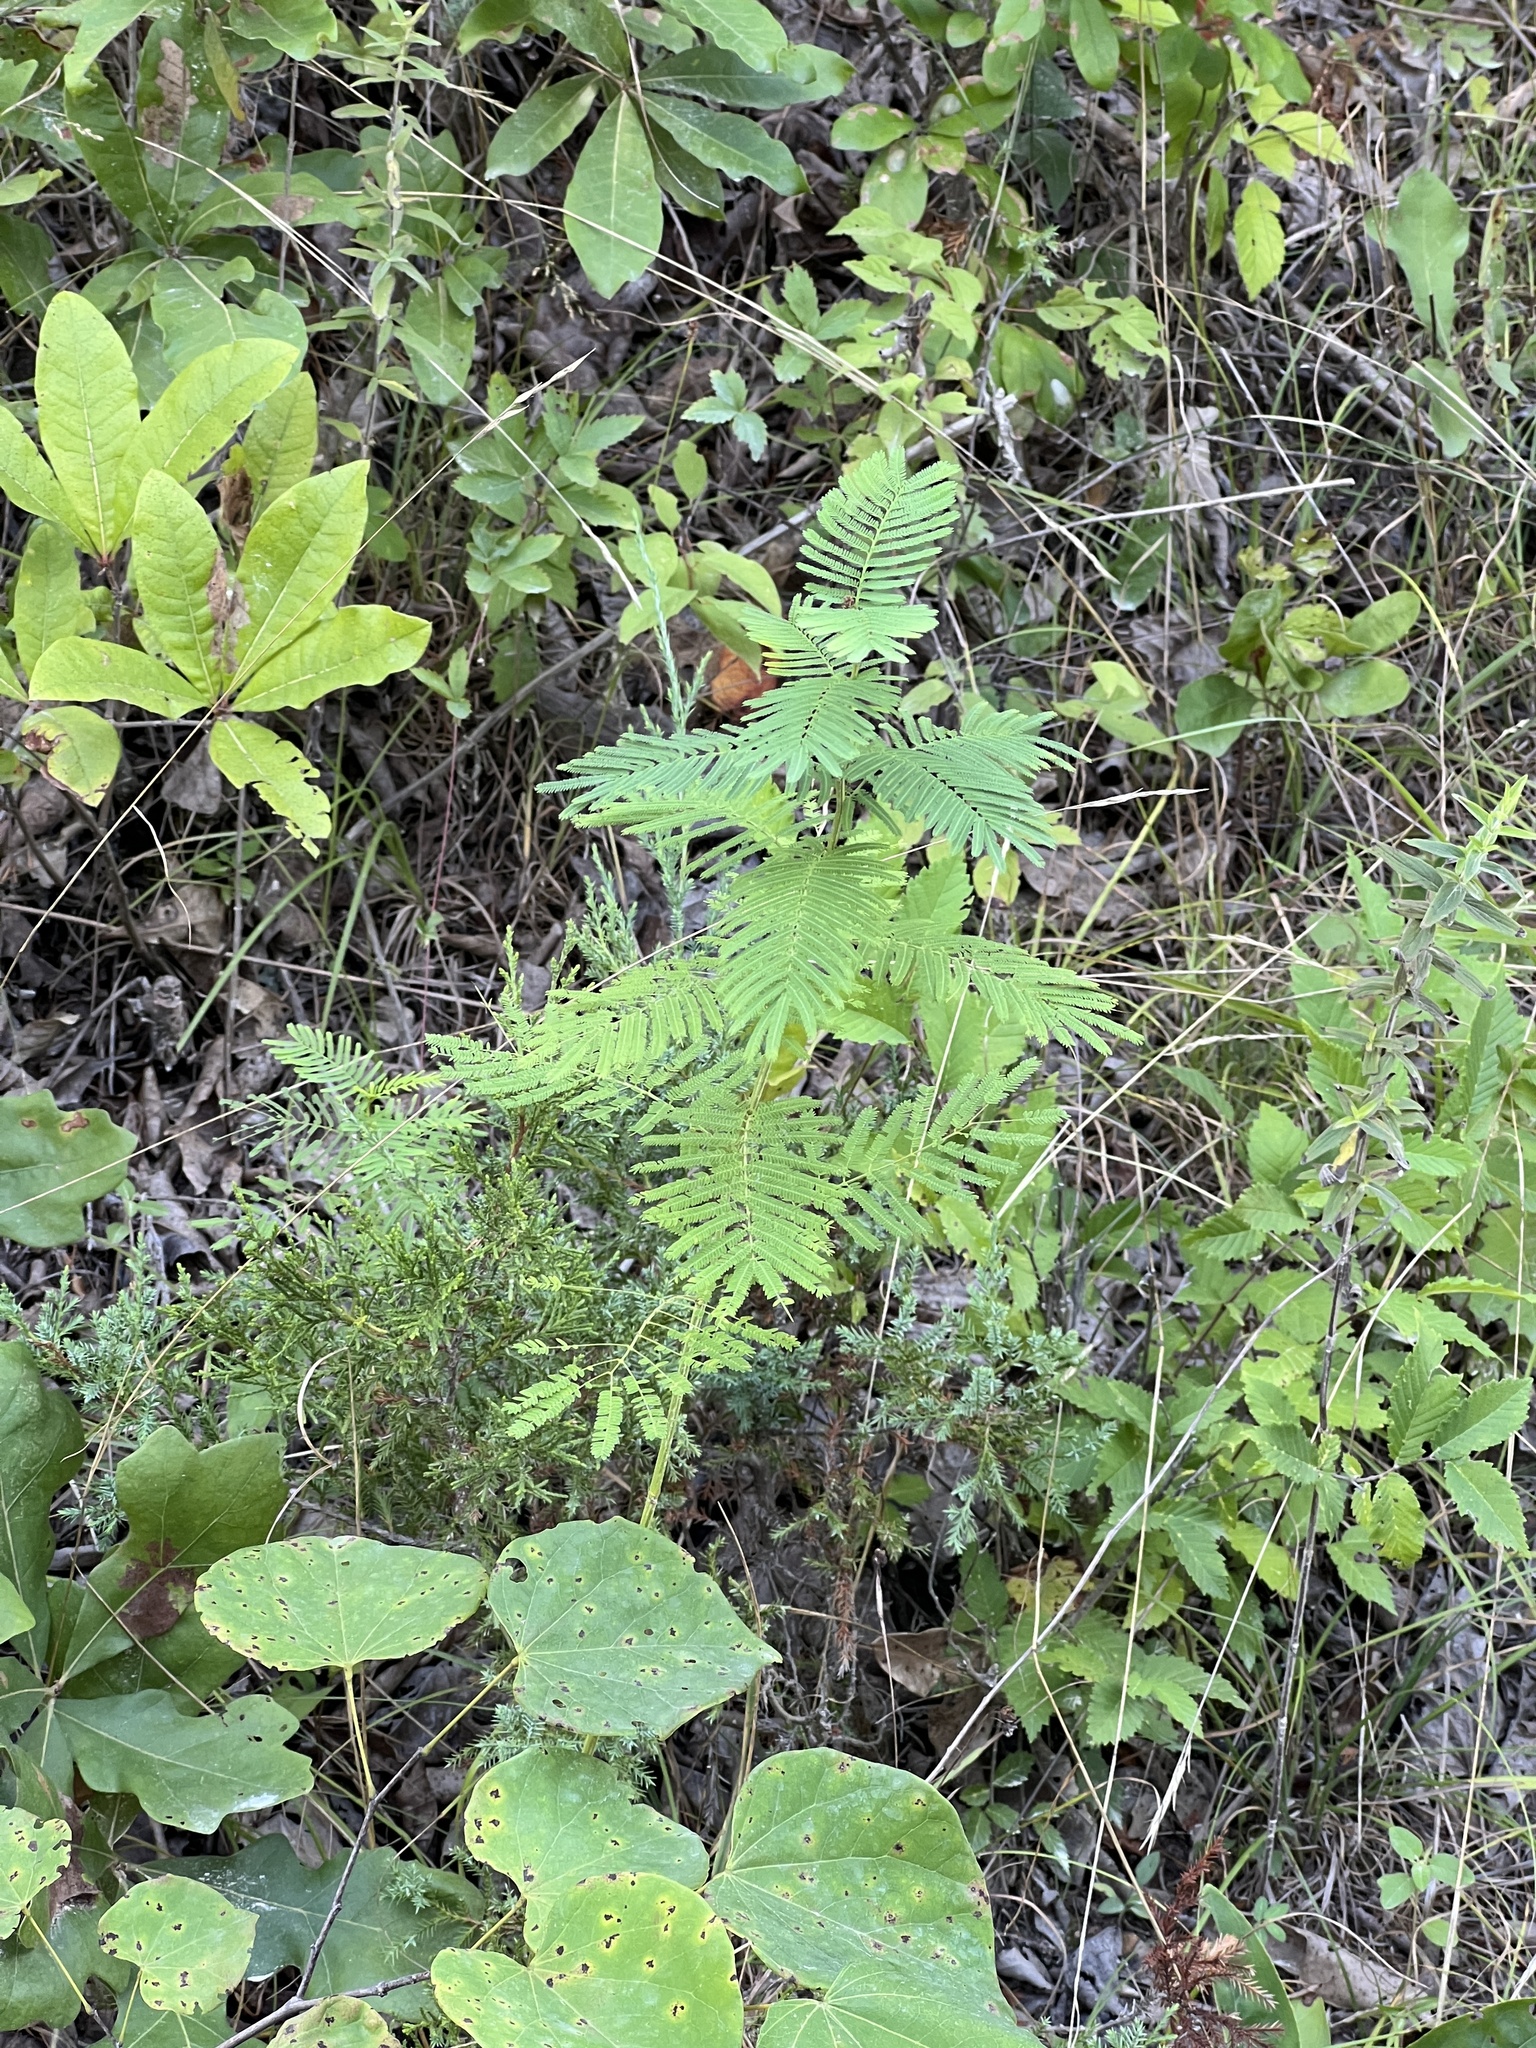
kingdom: Plantae
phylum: Tracheophyta
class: Magnoliopsida
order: Fabales
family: Fabaceae
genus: Desmanthus
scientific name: Desmanthus illinoensis
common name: Illinois bundle-flower
